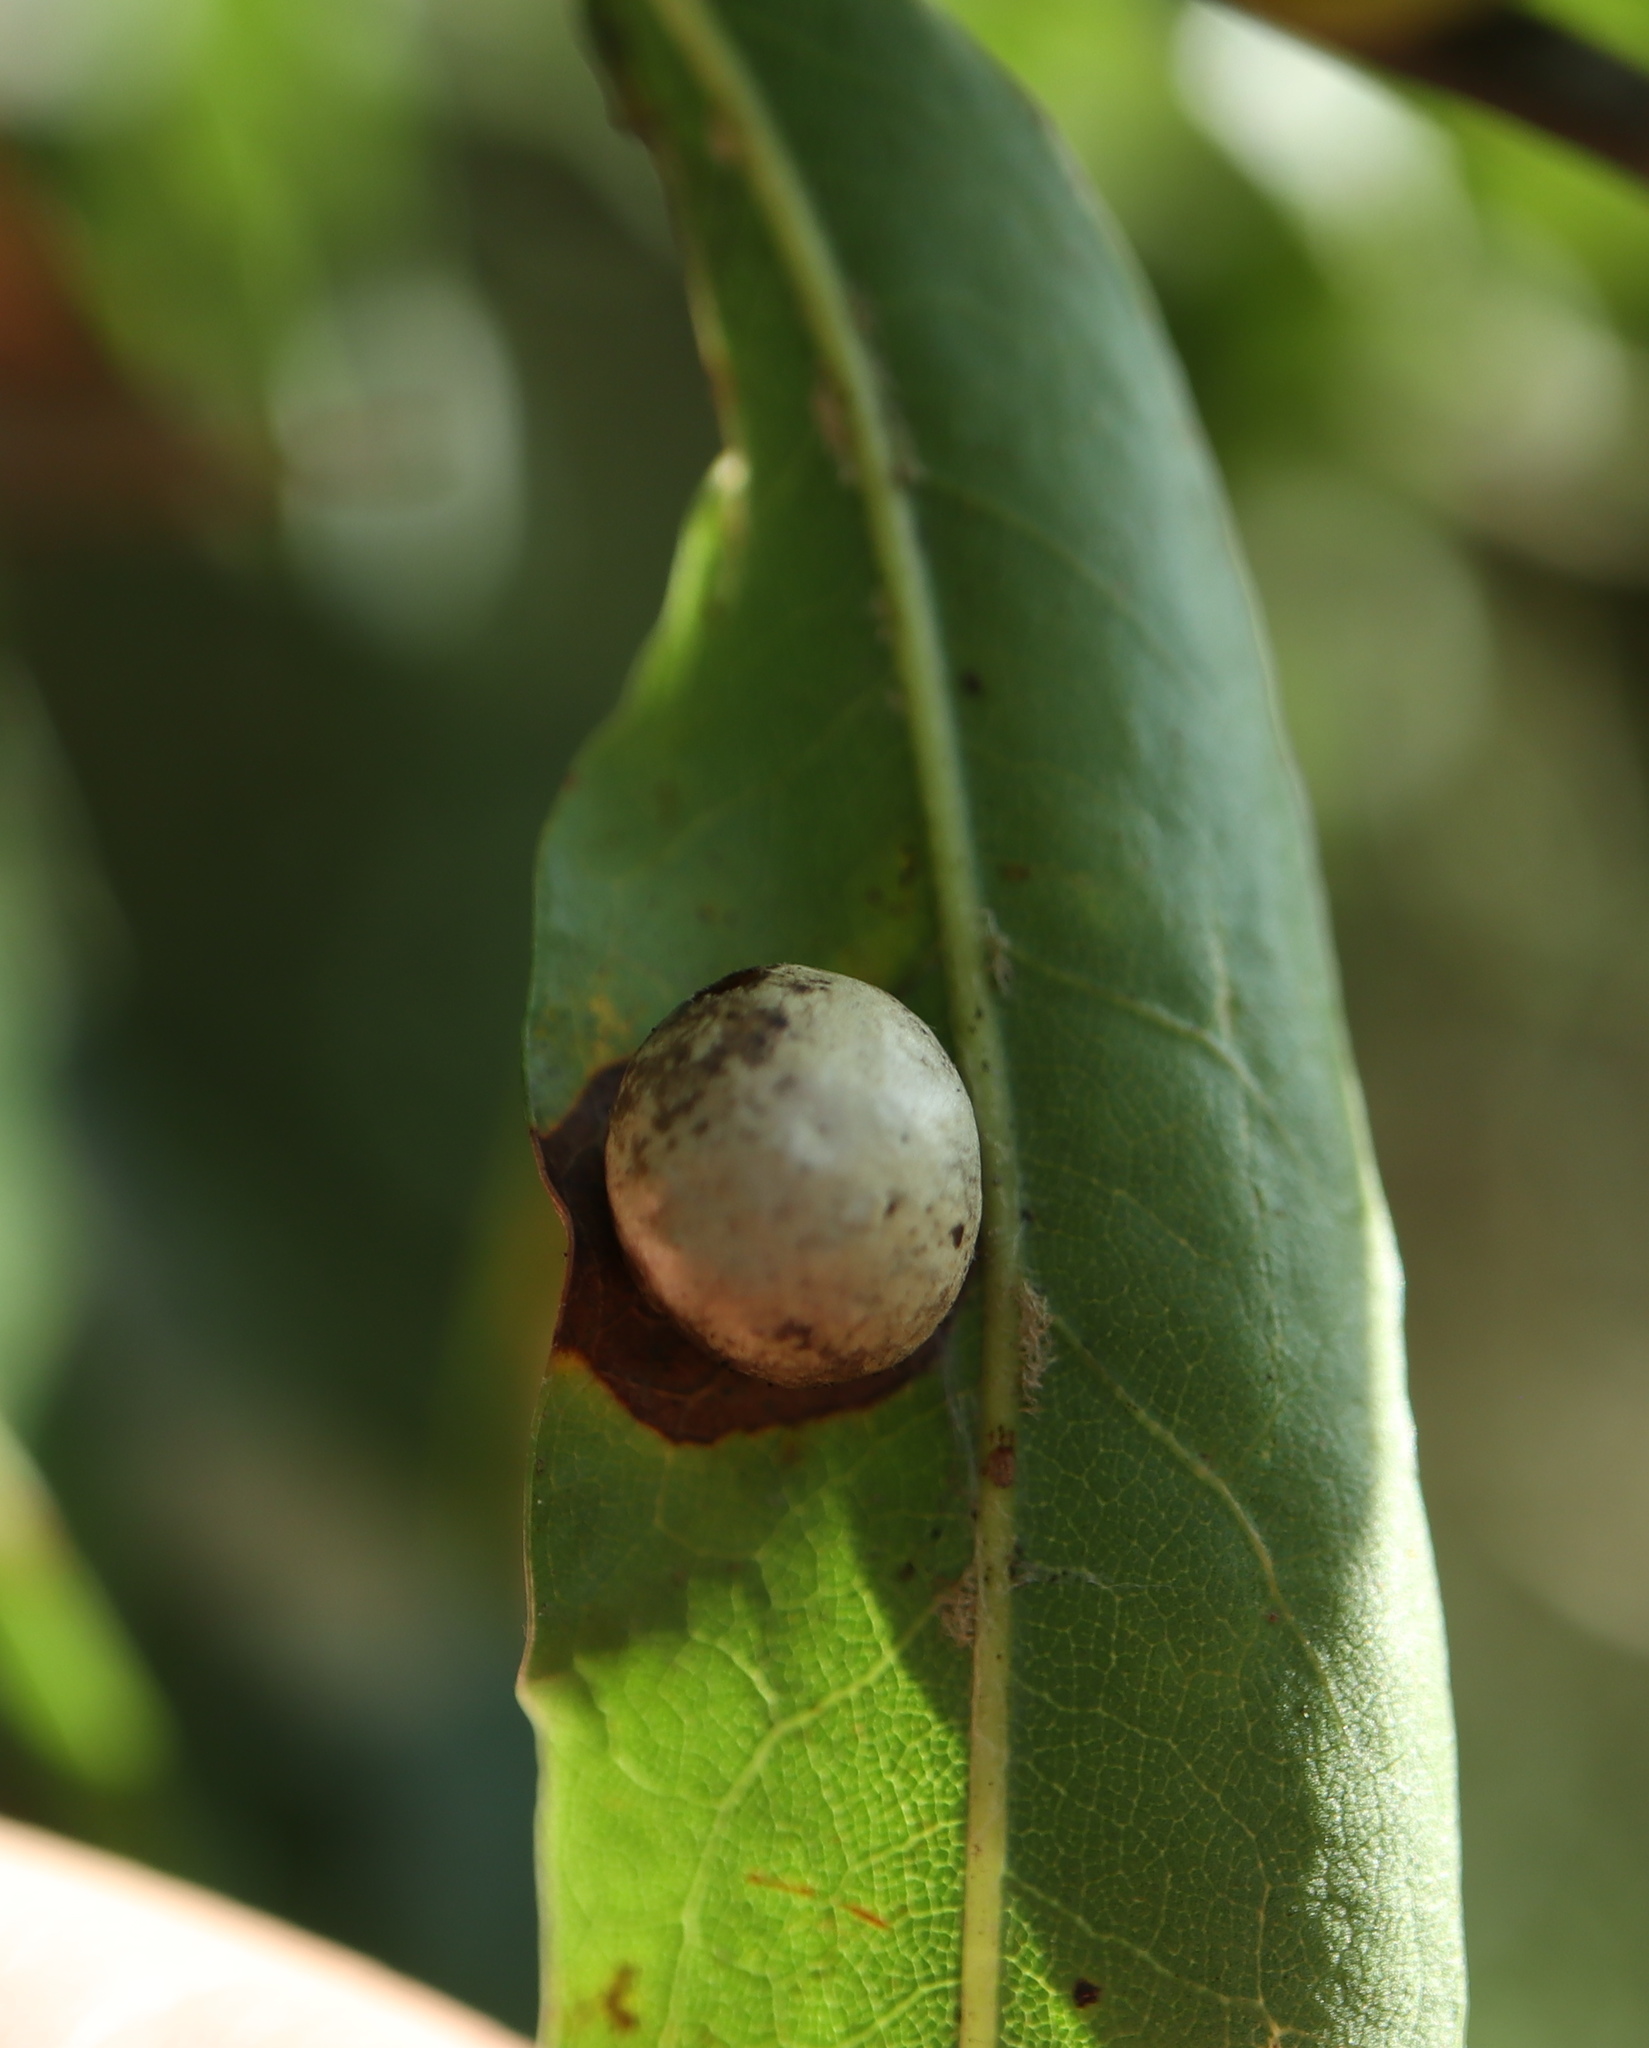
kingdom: Animalia
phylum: Arthropoda
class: Insecta
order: Diptera
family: Cecidomyiidae
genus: Polystepha
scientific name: Polystepha pilulae
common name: Oak leaf gall midge
